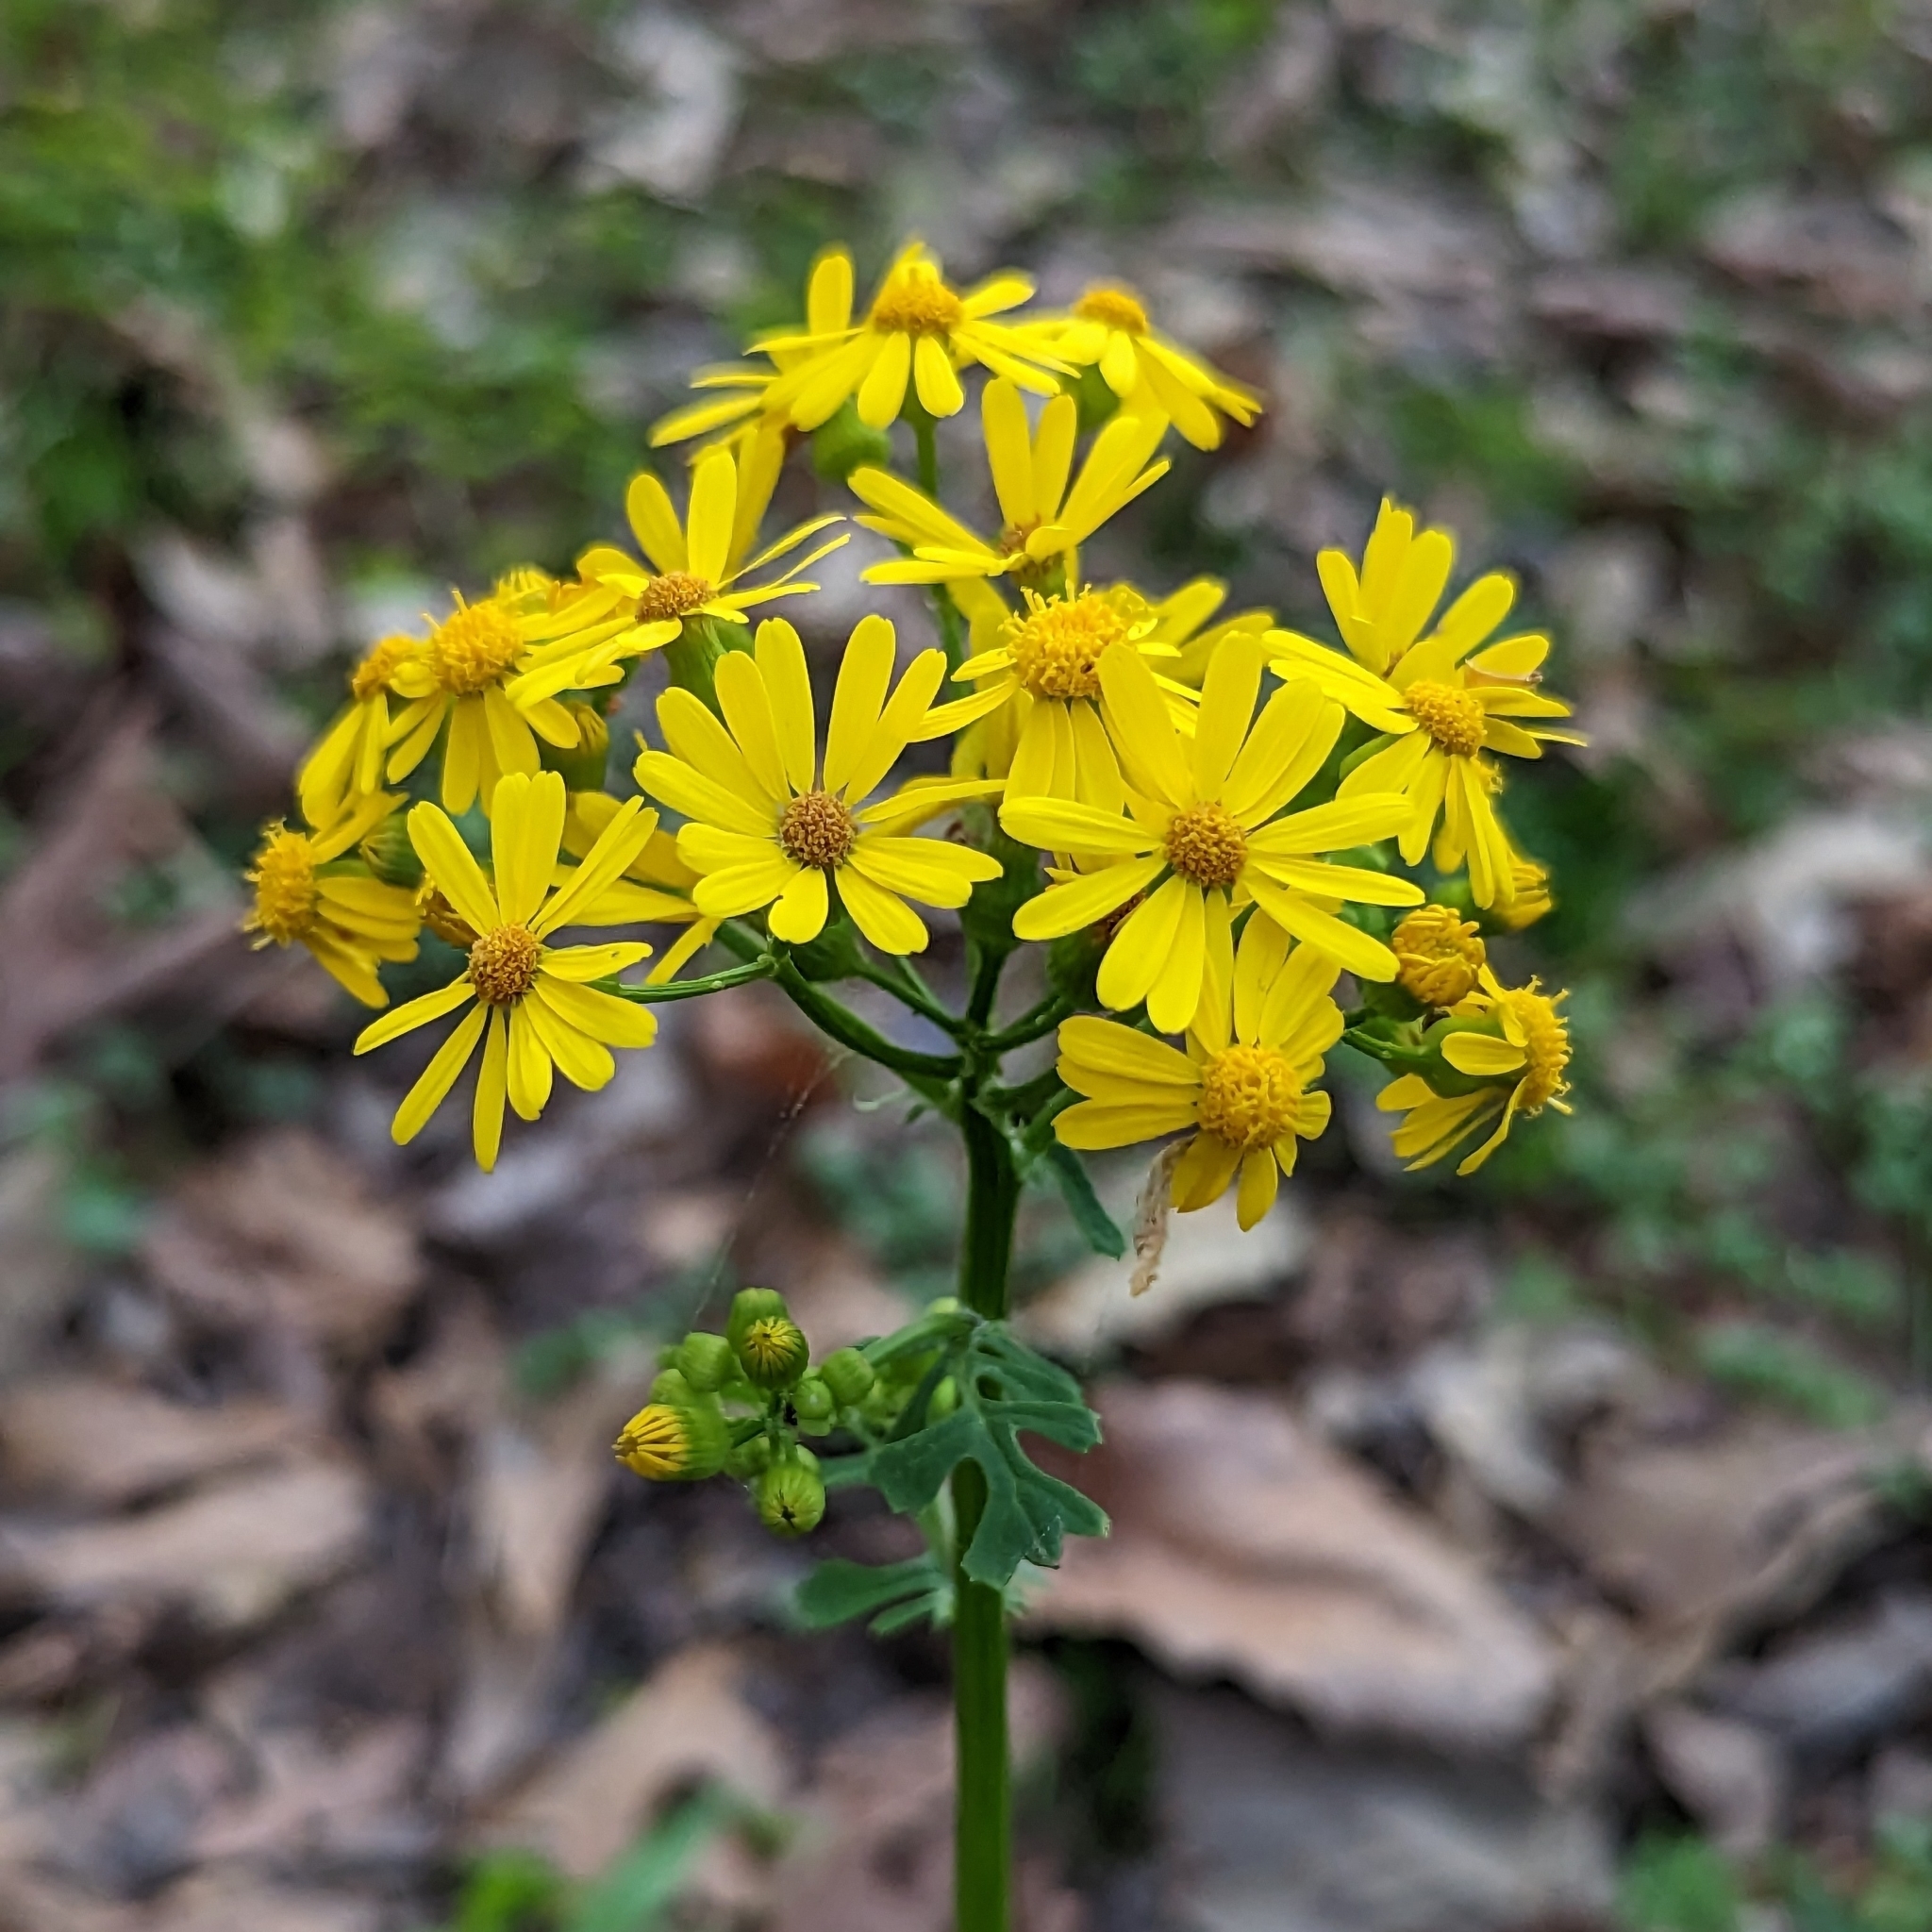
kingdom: Plantae
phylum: Tracheophyta
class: Magnoliopsida
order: Asterales
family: Asteraceae
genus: Packera
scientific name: Packera glabella
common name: Butterweed
